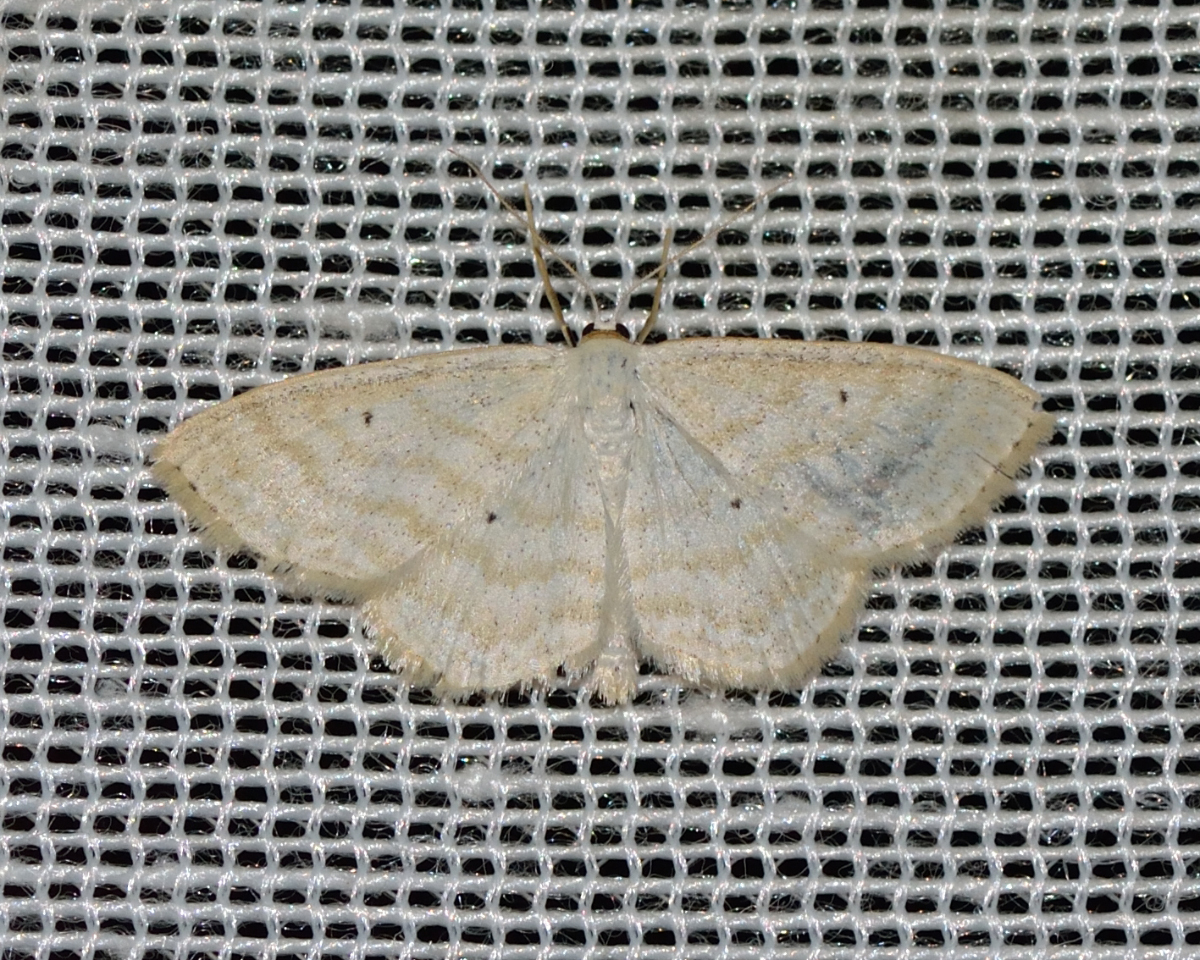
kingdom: Animalia
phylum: Arthropoda
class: Insecta
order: Lepidoptera
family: Geometridae
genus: Scopula
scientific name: Scopula immutata
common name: Lesser cream wave
